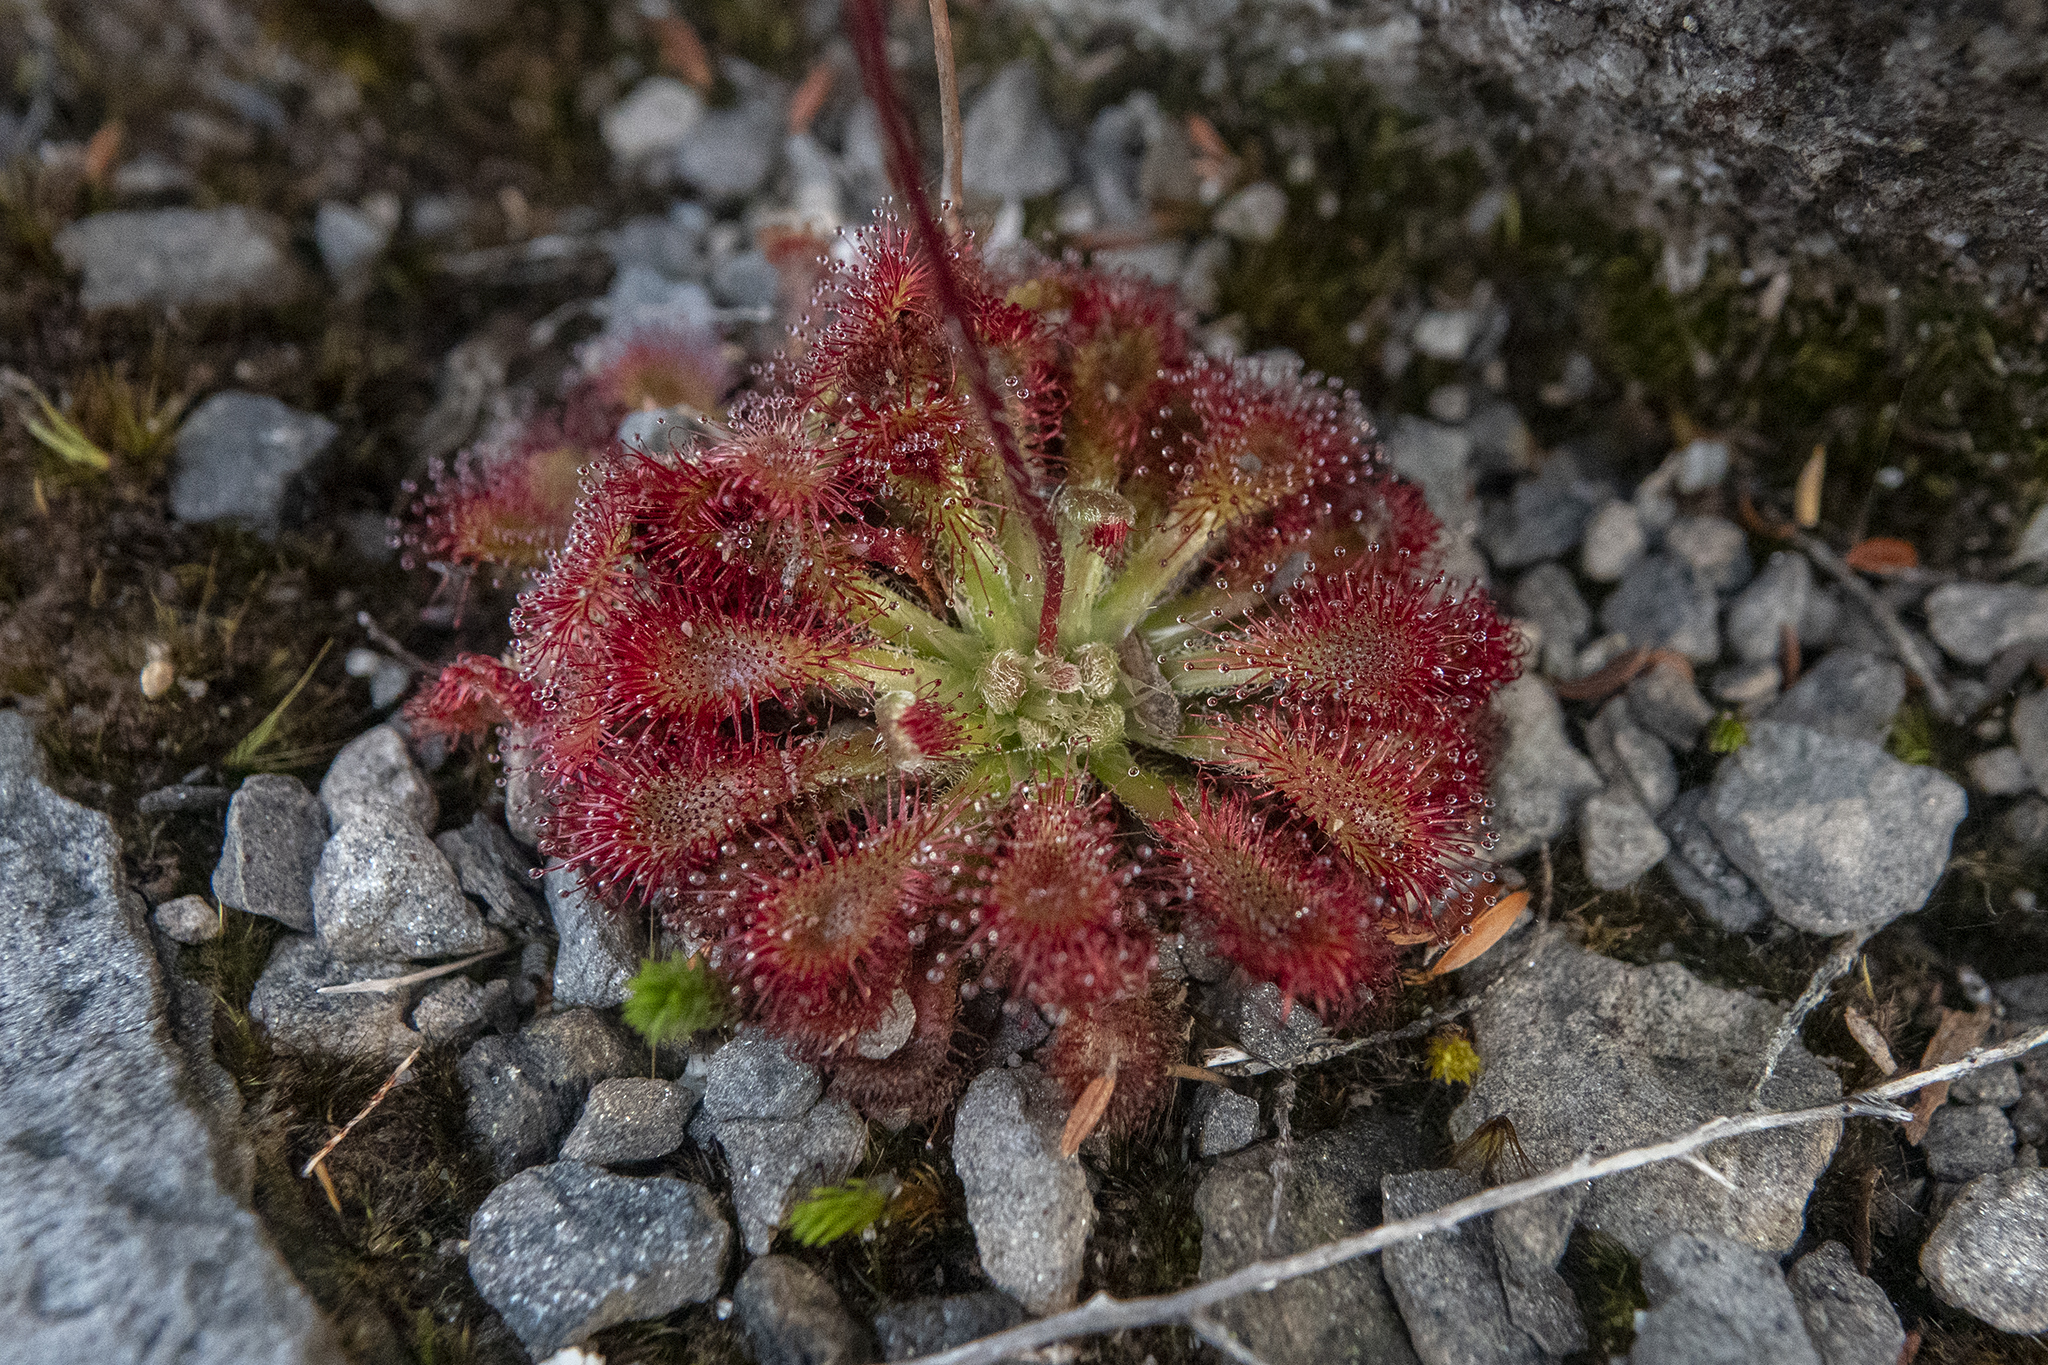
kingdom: Plantae
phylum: Tracheophyta
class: Magnoliopsida
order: Caryophyllales
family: Droseraceae
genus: Drosera
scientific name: Drosera spatulata
